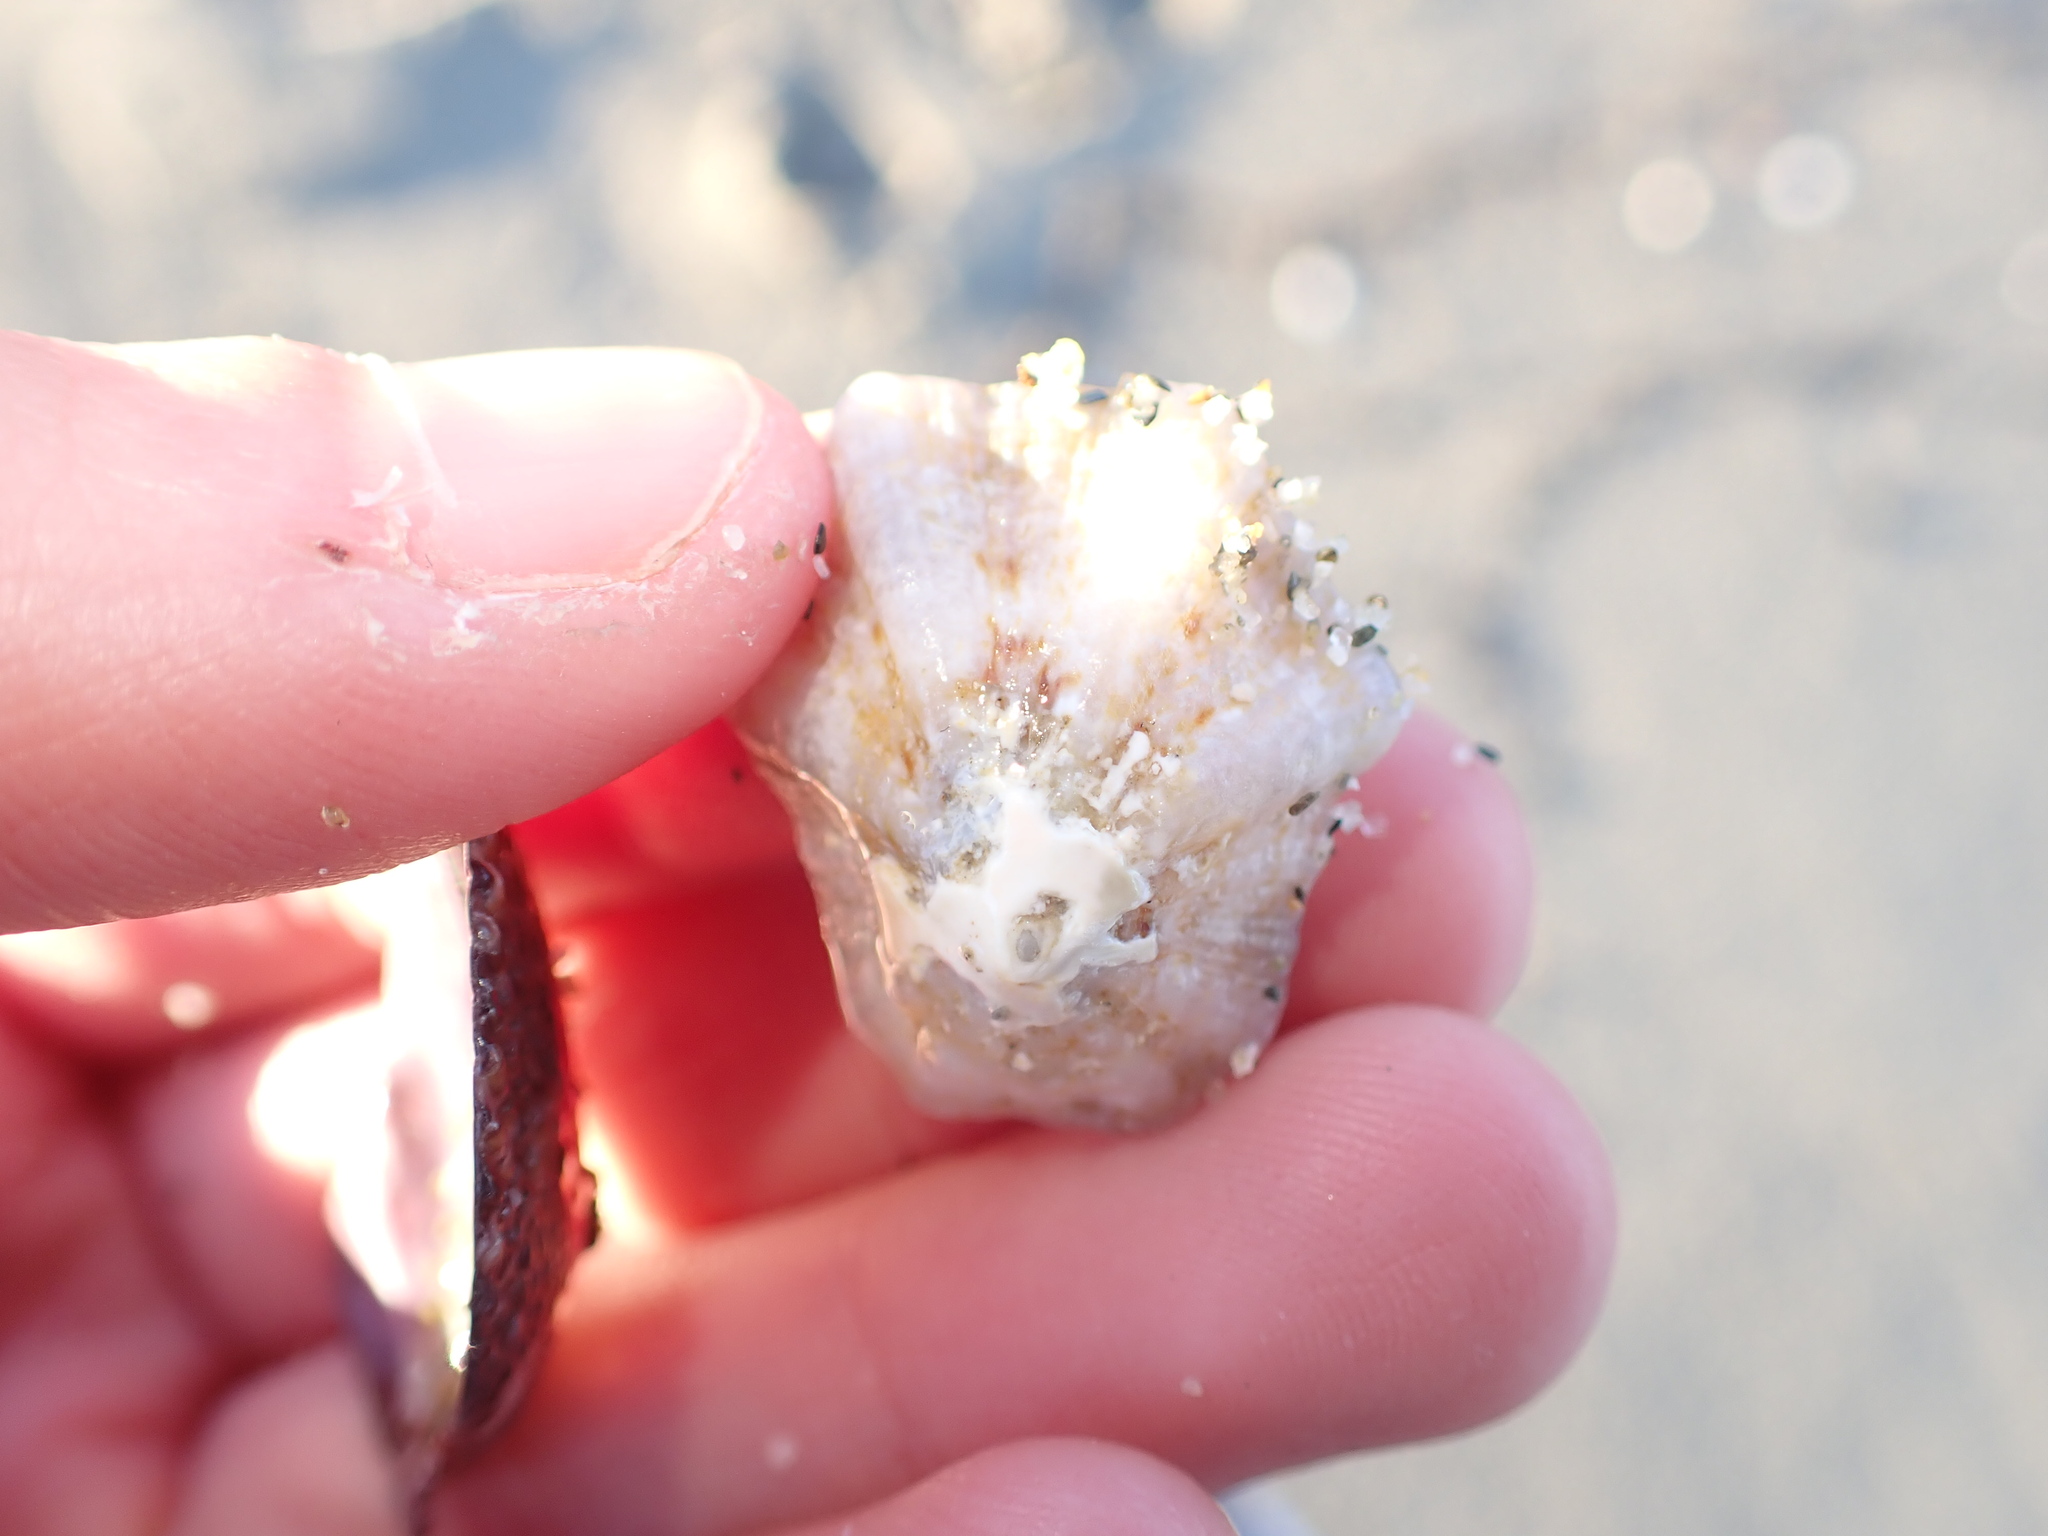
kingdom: Animalia
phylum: Mollusca
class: Gastropoda
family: Patellidae
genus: Patella
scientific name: Patella caerulea
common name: Mediterranean limpet
